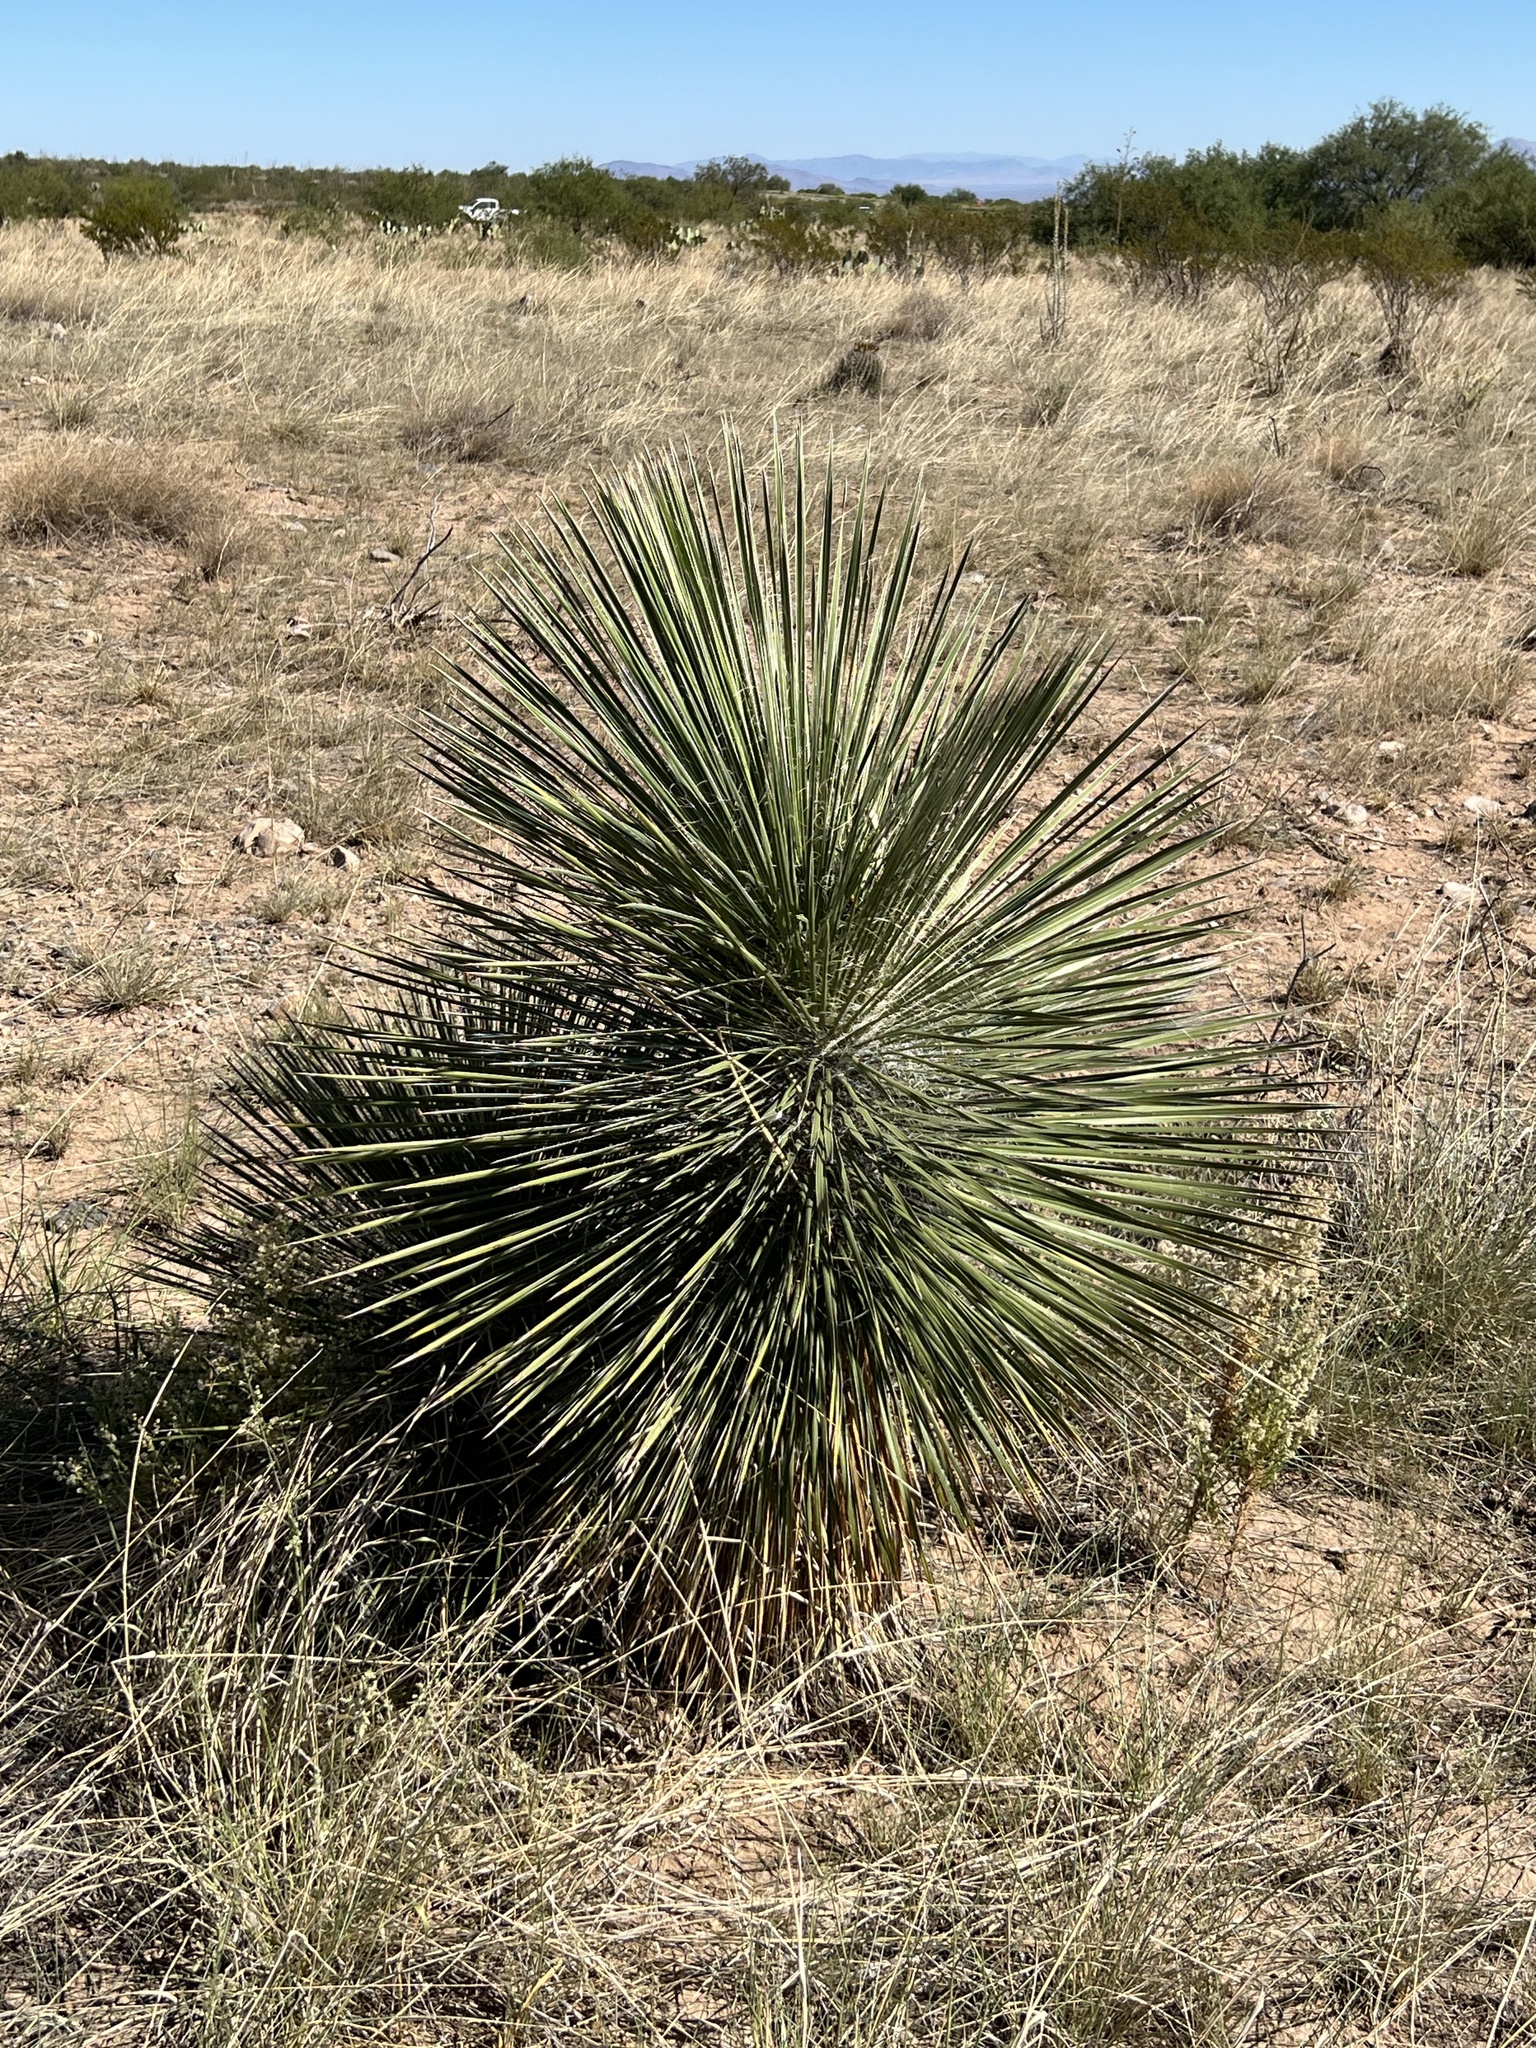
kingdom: Plantae
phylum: Tracheophyta
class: Liliopsida
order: Asparagales
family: Asparagaceae
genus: Yucca
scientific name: Yucca elata
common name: Palmella
